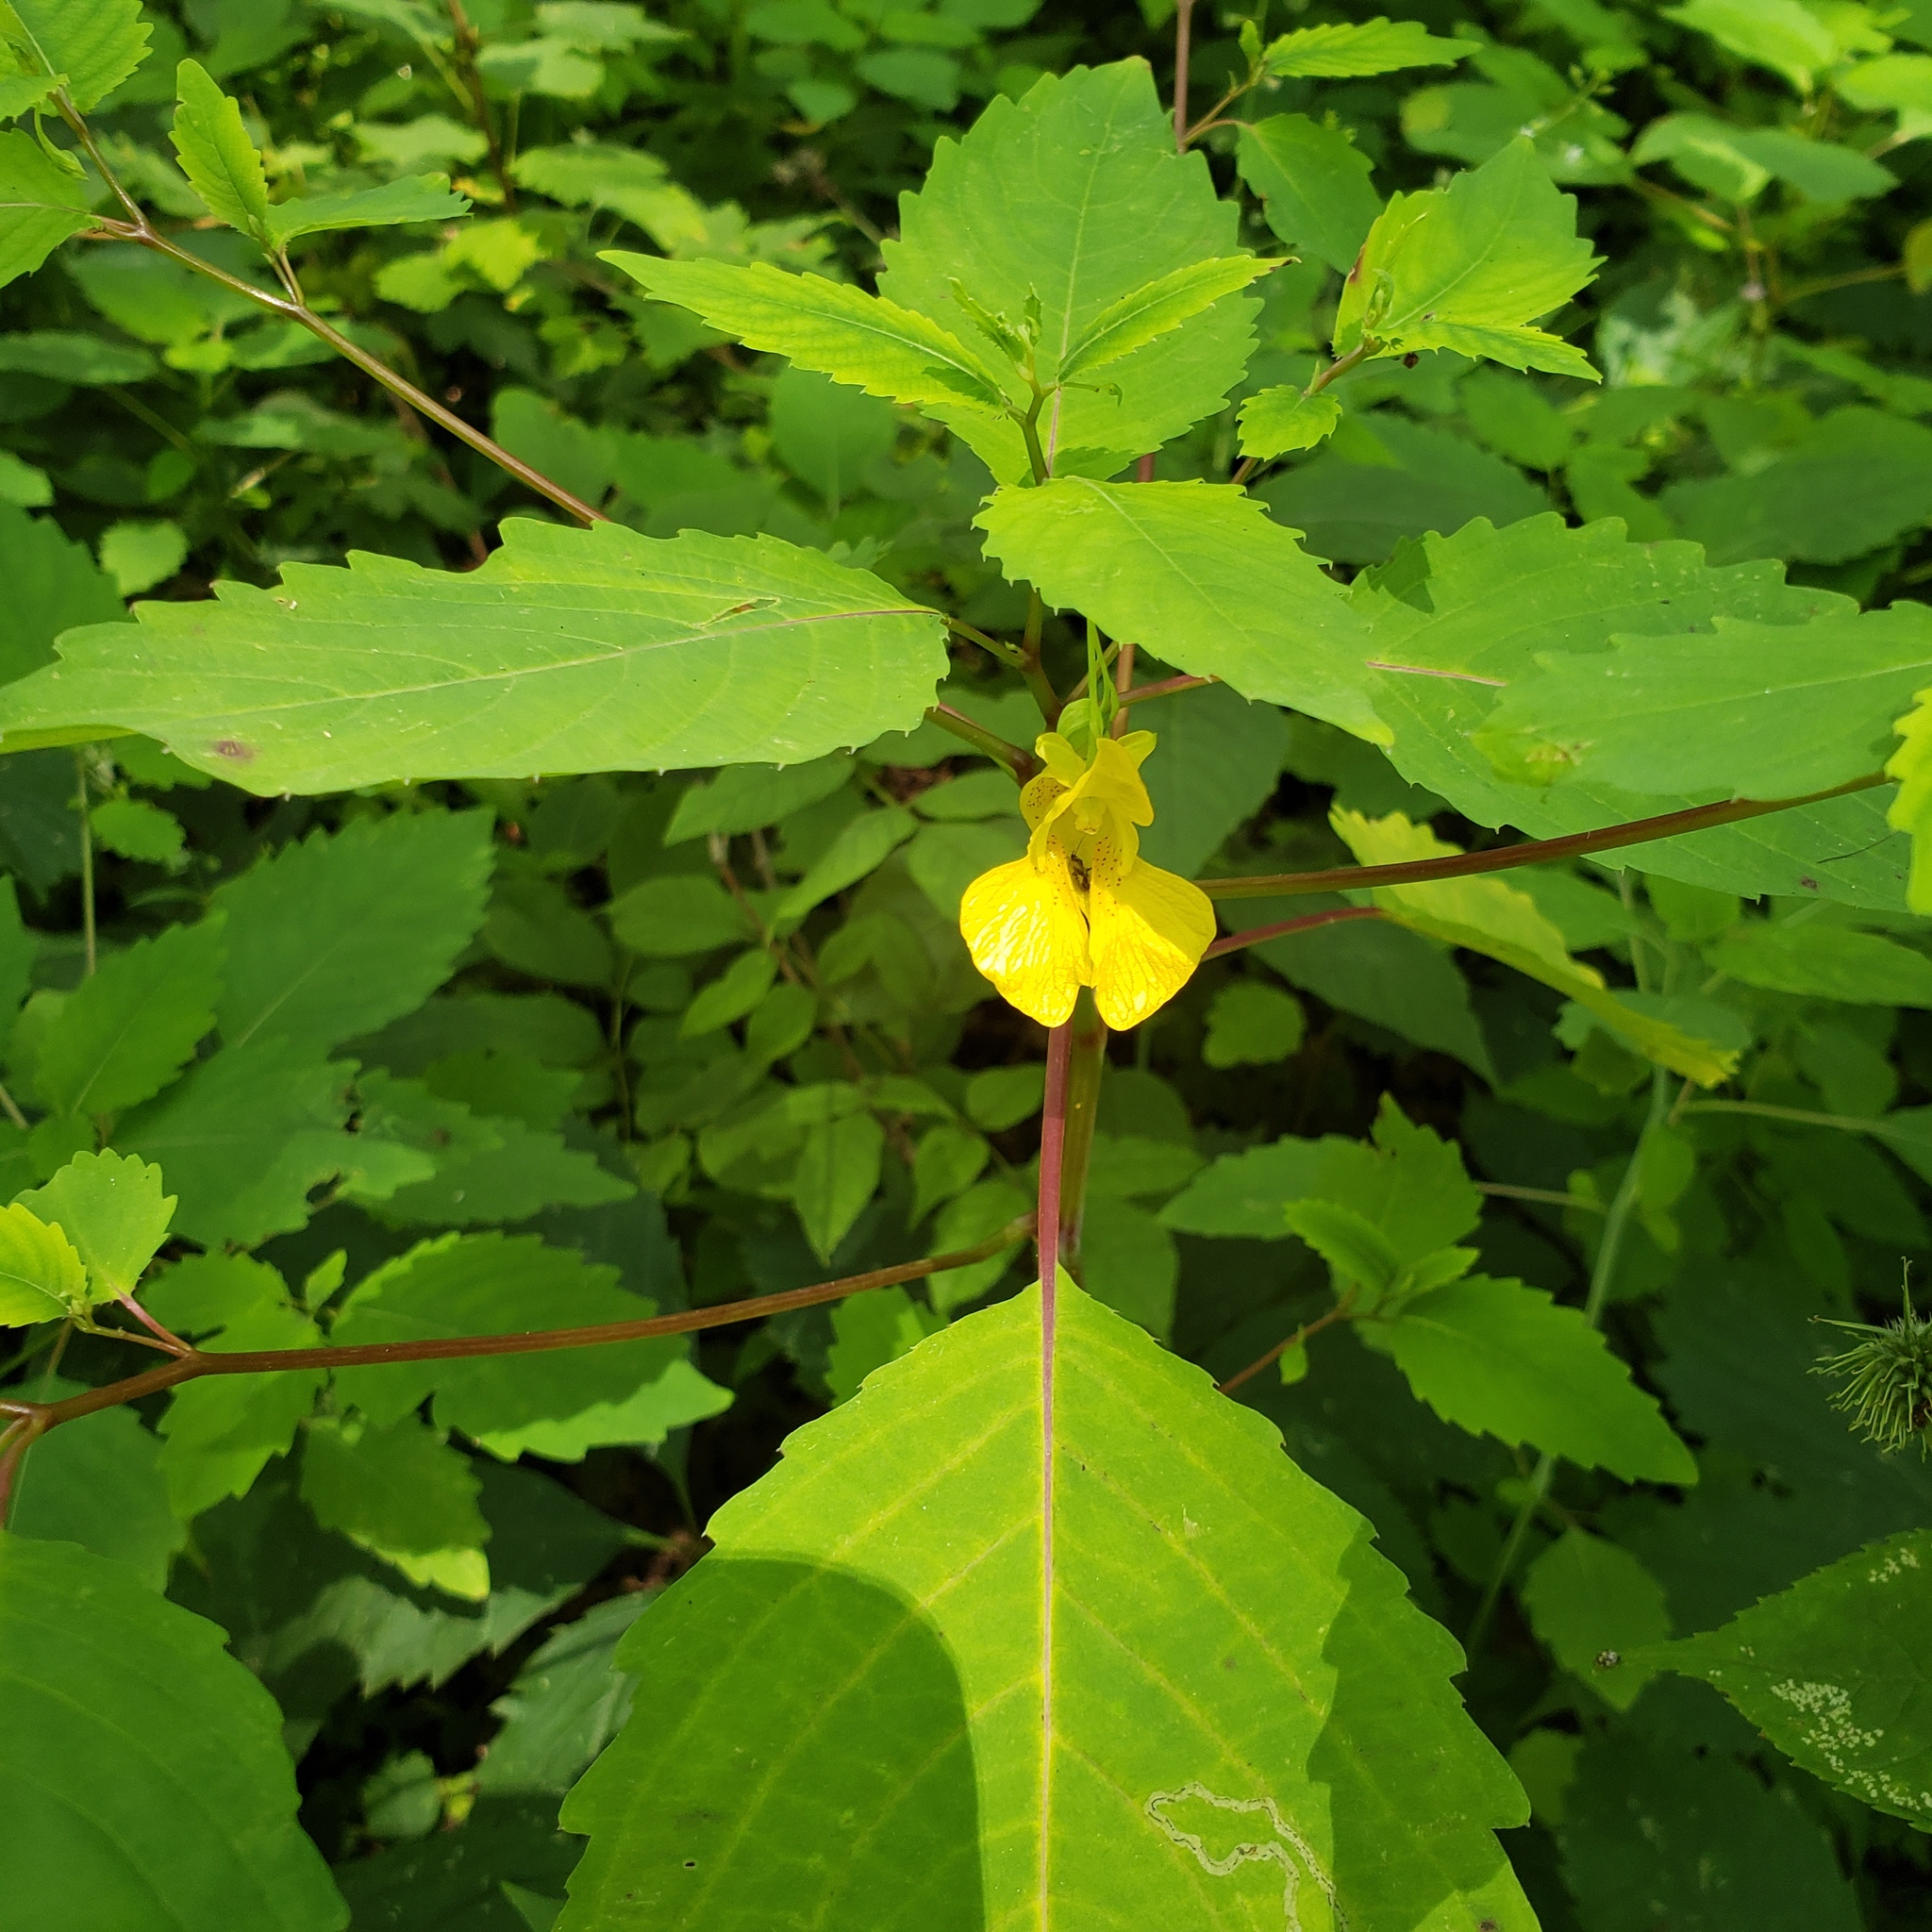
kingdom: Plantae
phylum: Tracheophyta
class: Magnoliopsida
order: Ericales
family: Balsaminaceae
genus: Impatiens
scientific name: Impatiens pallida
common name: Pale snapweed
